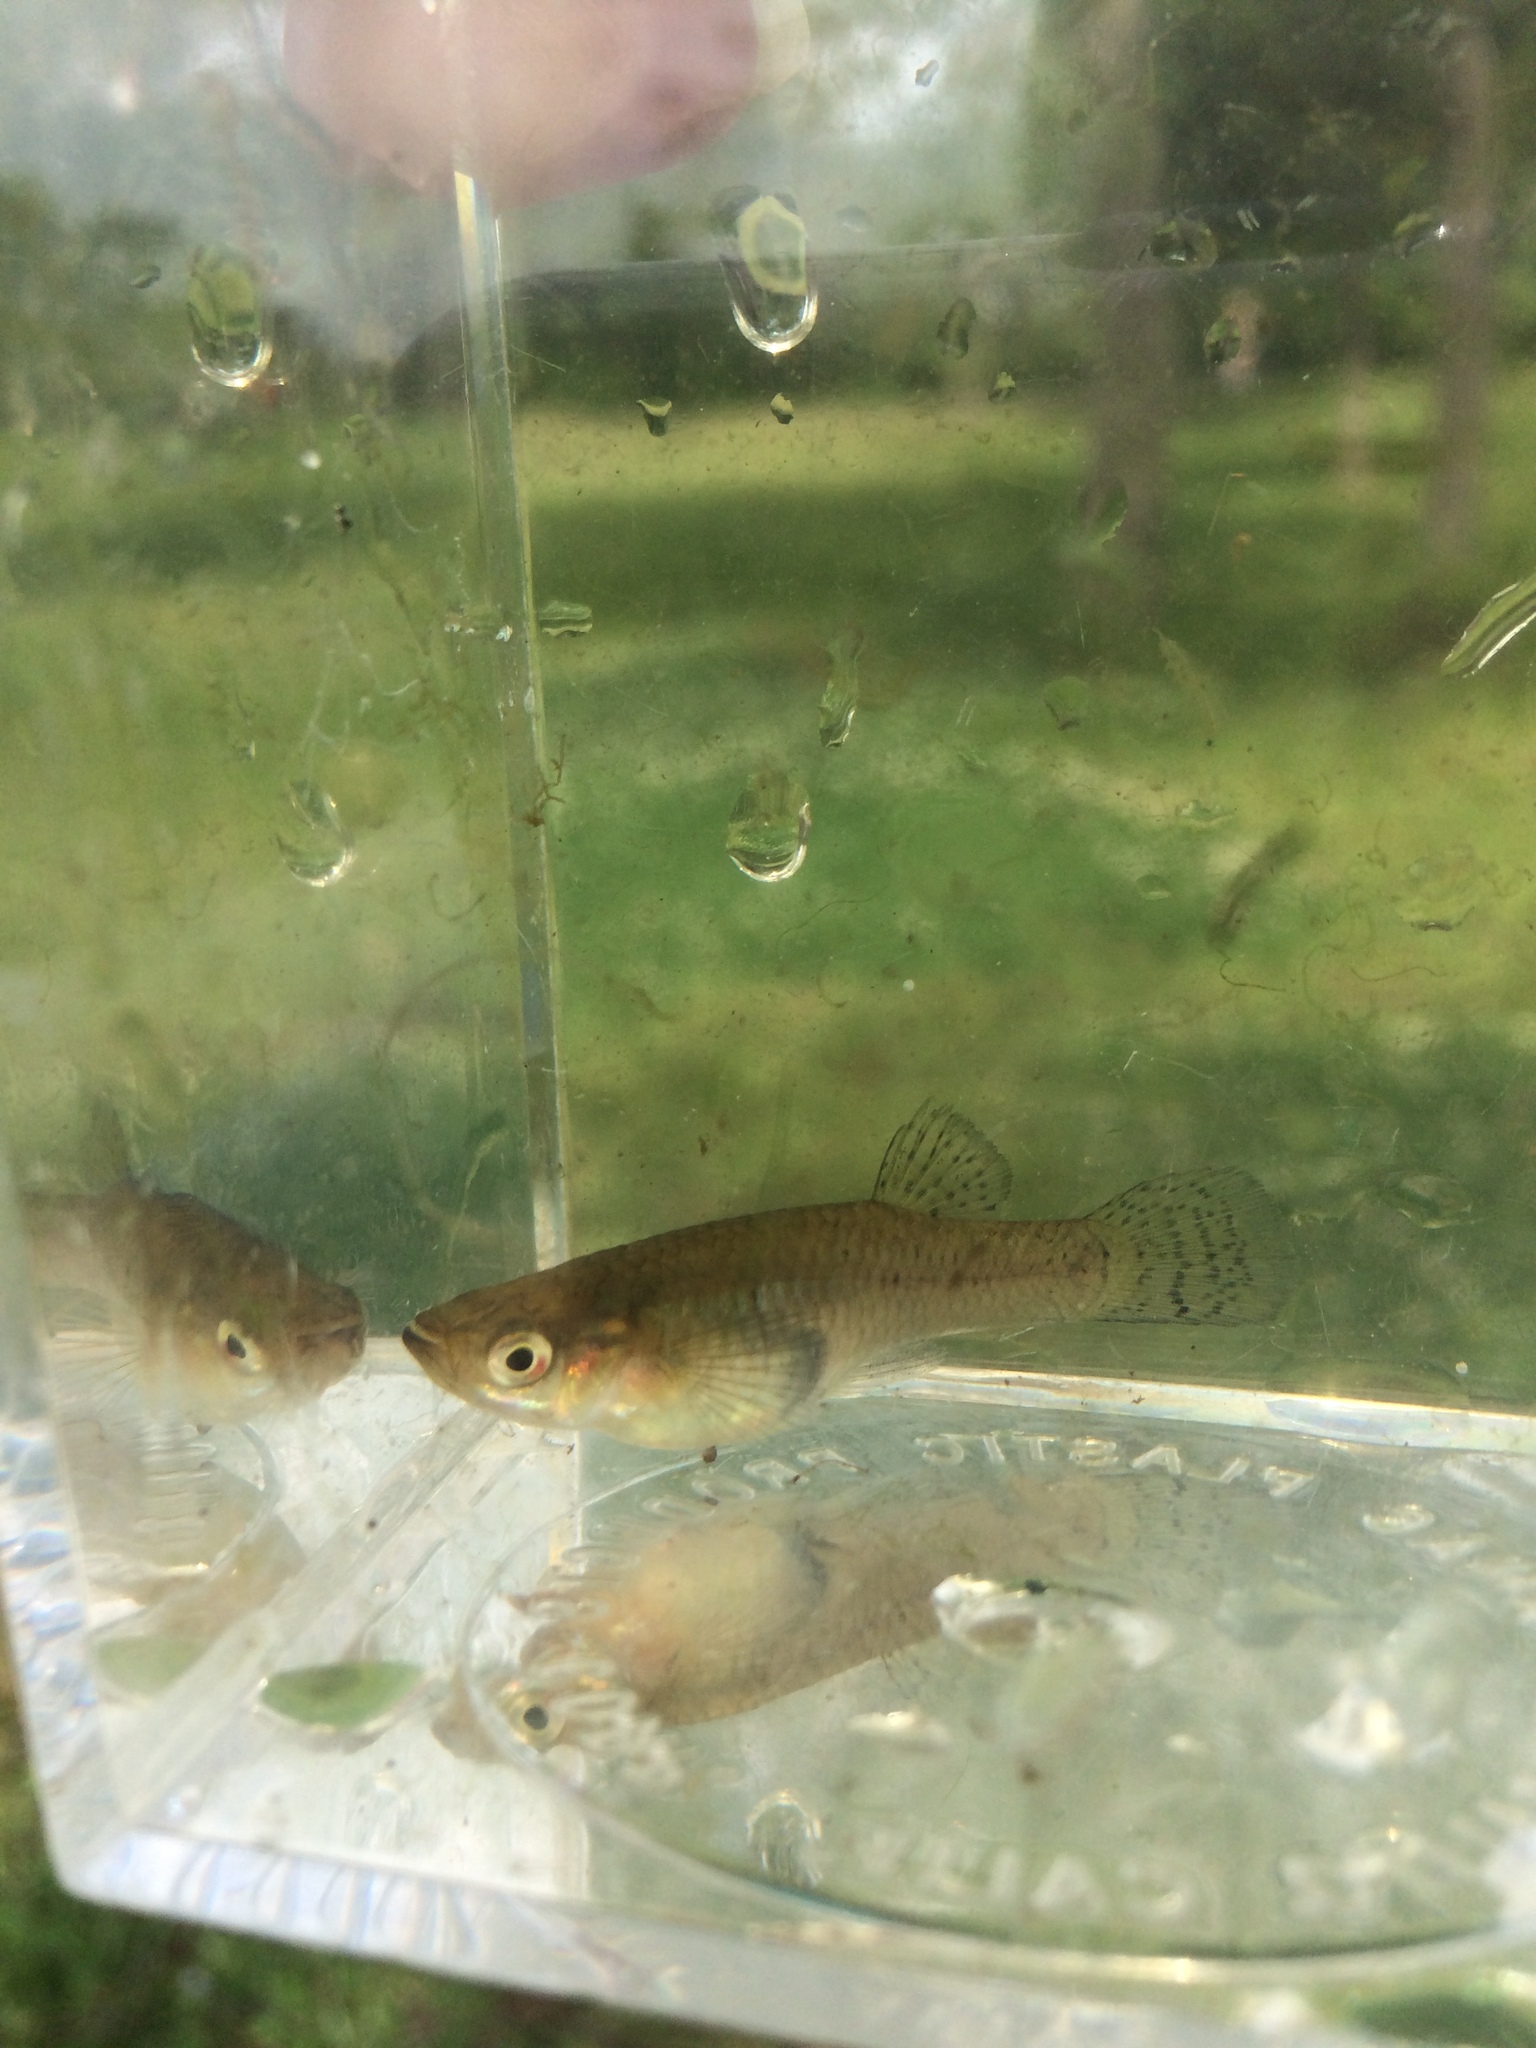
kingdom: Animalia
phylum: Chordata
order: Cyprinodontiformes
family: Poeciliidae
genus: Gambusia
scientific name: Gambusia holbrooki
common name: Eastern mosquitofish
